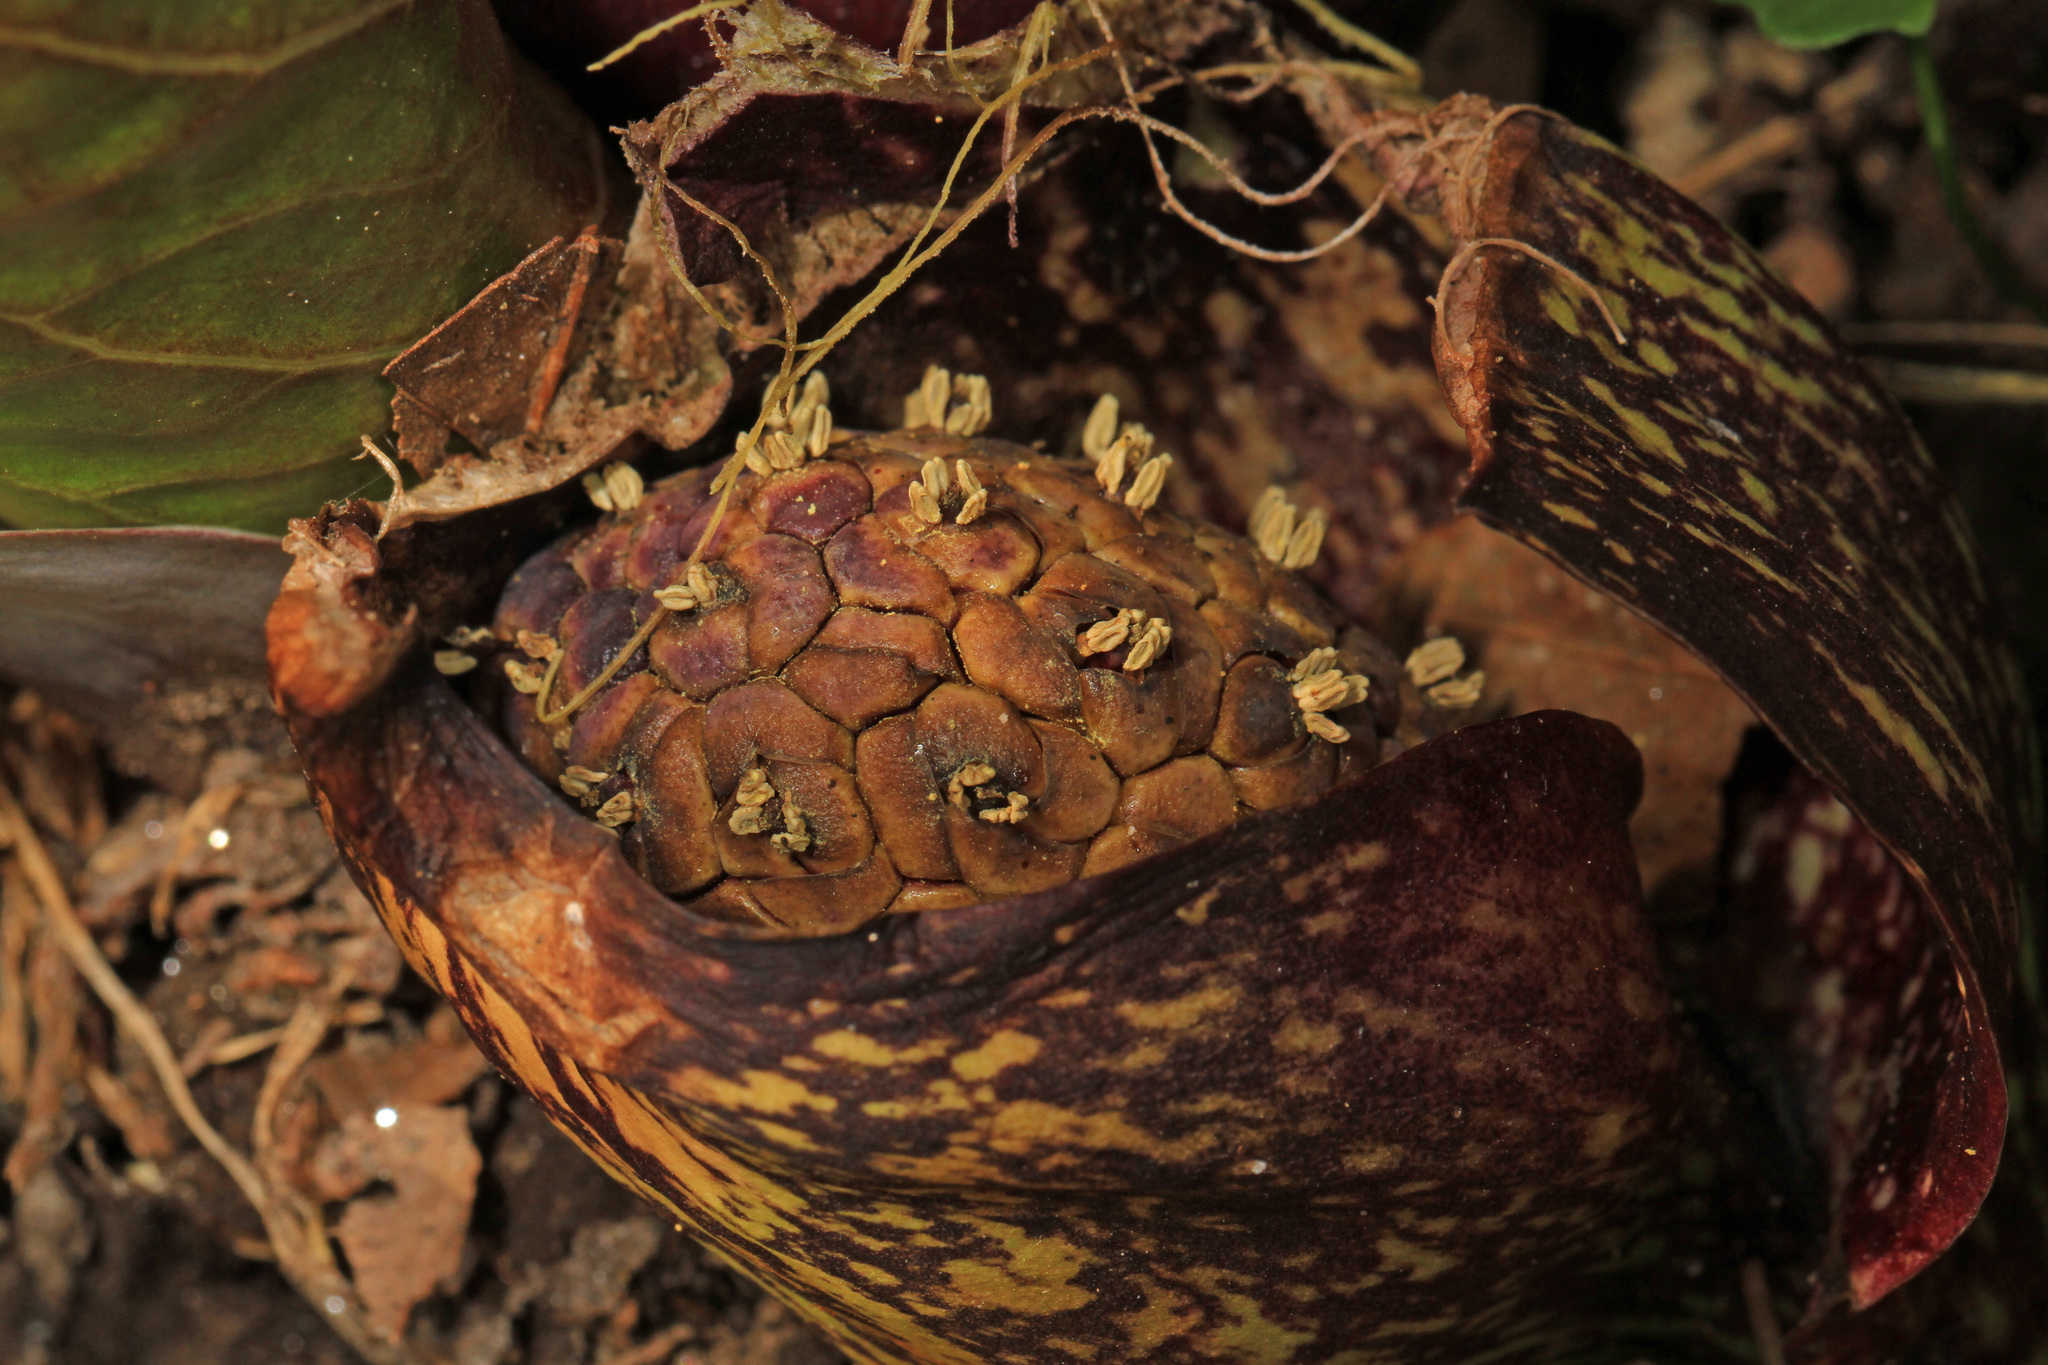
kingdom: Plantae
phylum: Tracheophyta
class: Liliopsida
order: Alismatales
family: Araceae
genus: Symplocarpus
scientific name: Symplocarpus foetidus
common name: Eastern skunk cabbage
